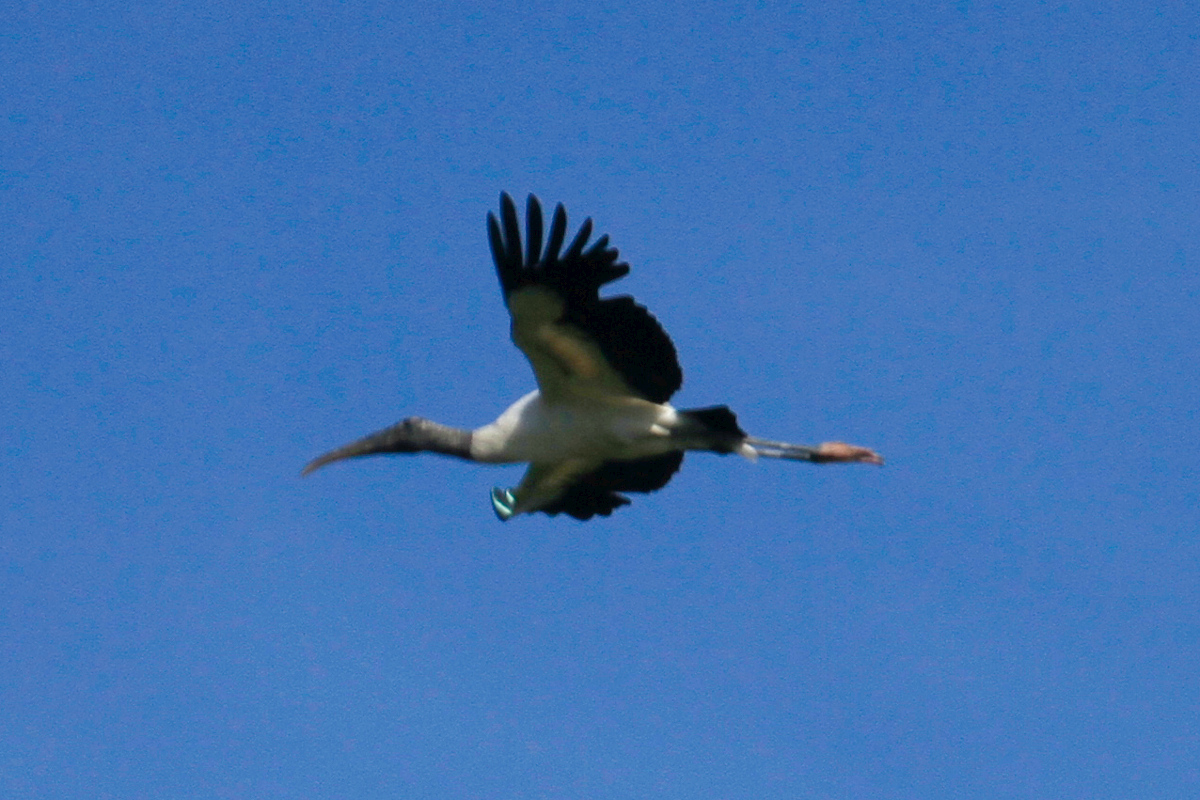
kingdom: Animalia
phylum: Chordata
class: Aves
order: Ciconiiformes
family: Ciconiidae
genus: Mycteria
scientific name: Mycteria americana
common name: Wood stork
